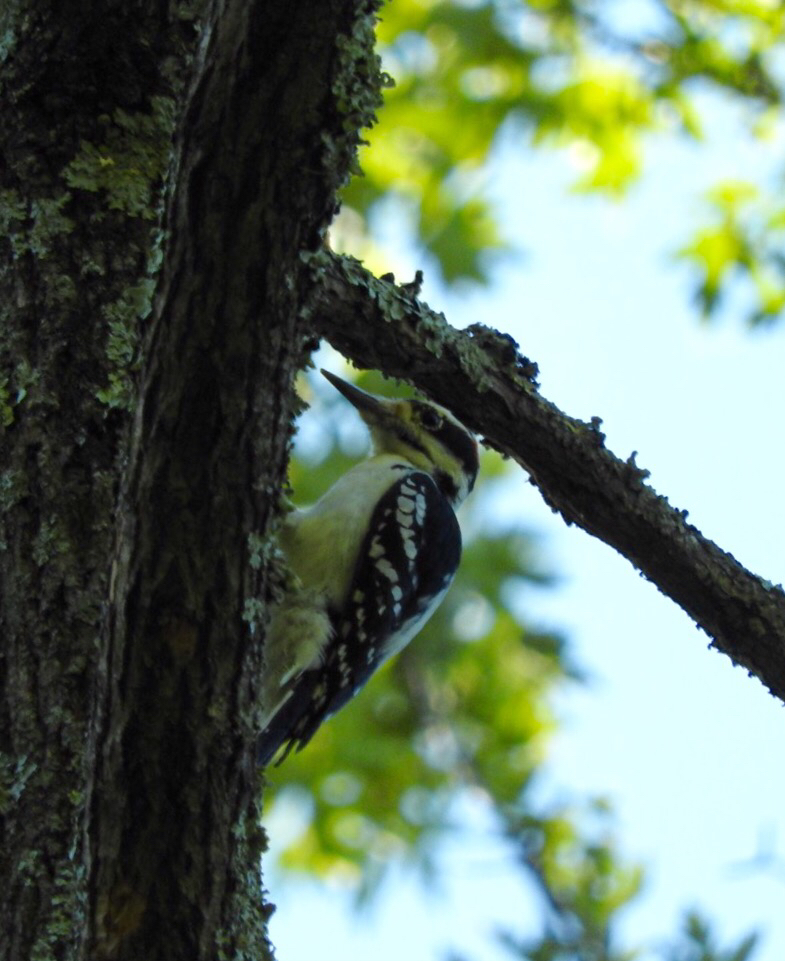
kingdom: Animalia
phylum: Chordata
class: Aves
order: Piciformes
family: Picidae
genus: Leuconotopicus
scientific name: Leuconotopicus villosus
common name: Hairy woodpecker
